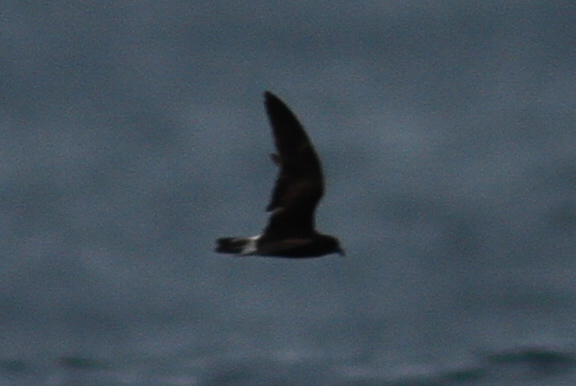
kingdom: Animalia
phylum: Chordata
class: Aves
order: Procellariiformes
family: Hydrobatidae
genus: Oceanodroma
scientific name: Oceanodroma castro
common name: Band-rumped storm-petrel
